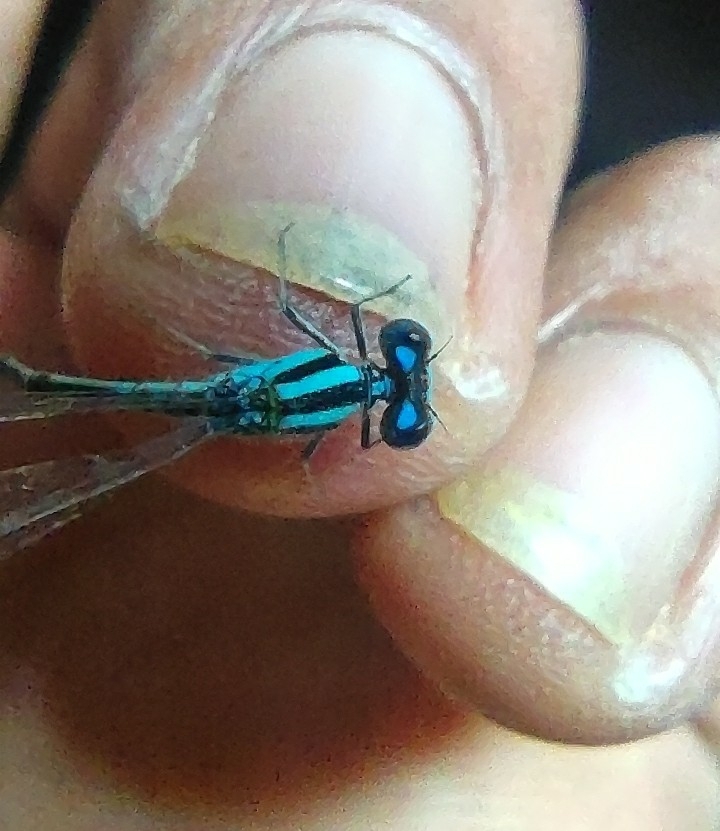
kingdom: Animalia
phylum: Arthropoda
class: Insecta
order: Odonata
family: Coenagrionidae
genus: Pseudagrion
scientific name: Pseudagrion microcephalum
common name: Blue riverdamsel
